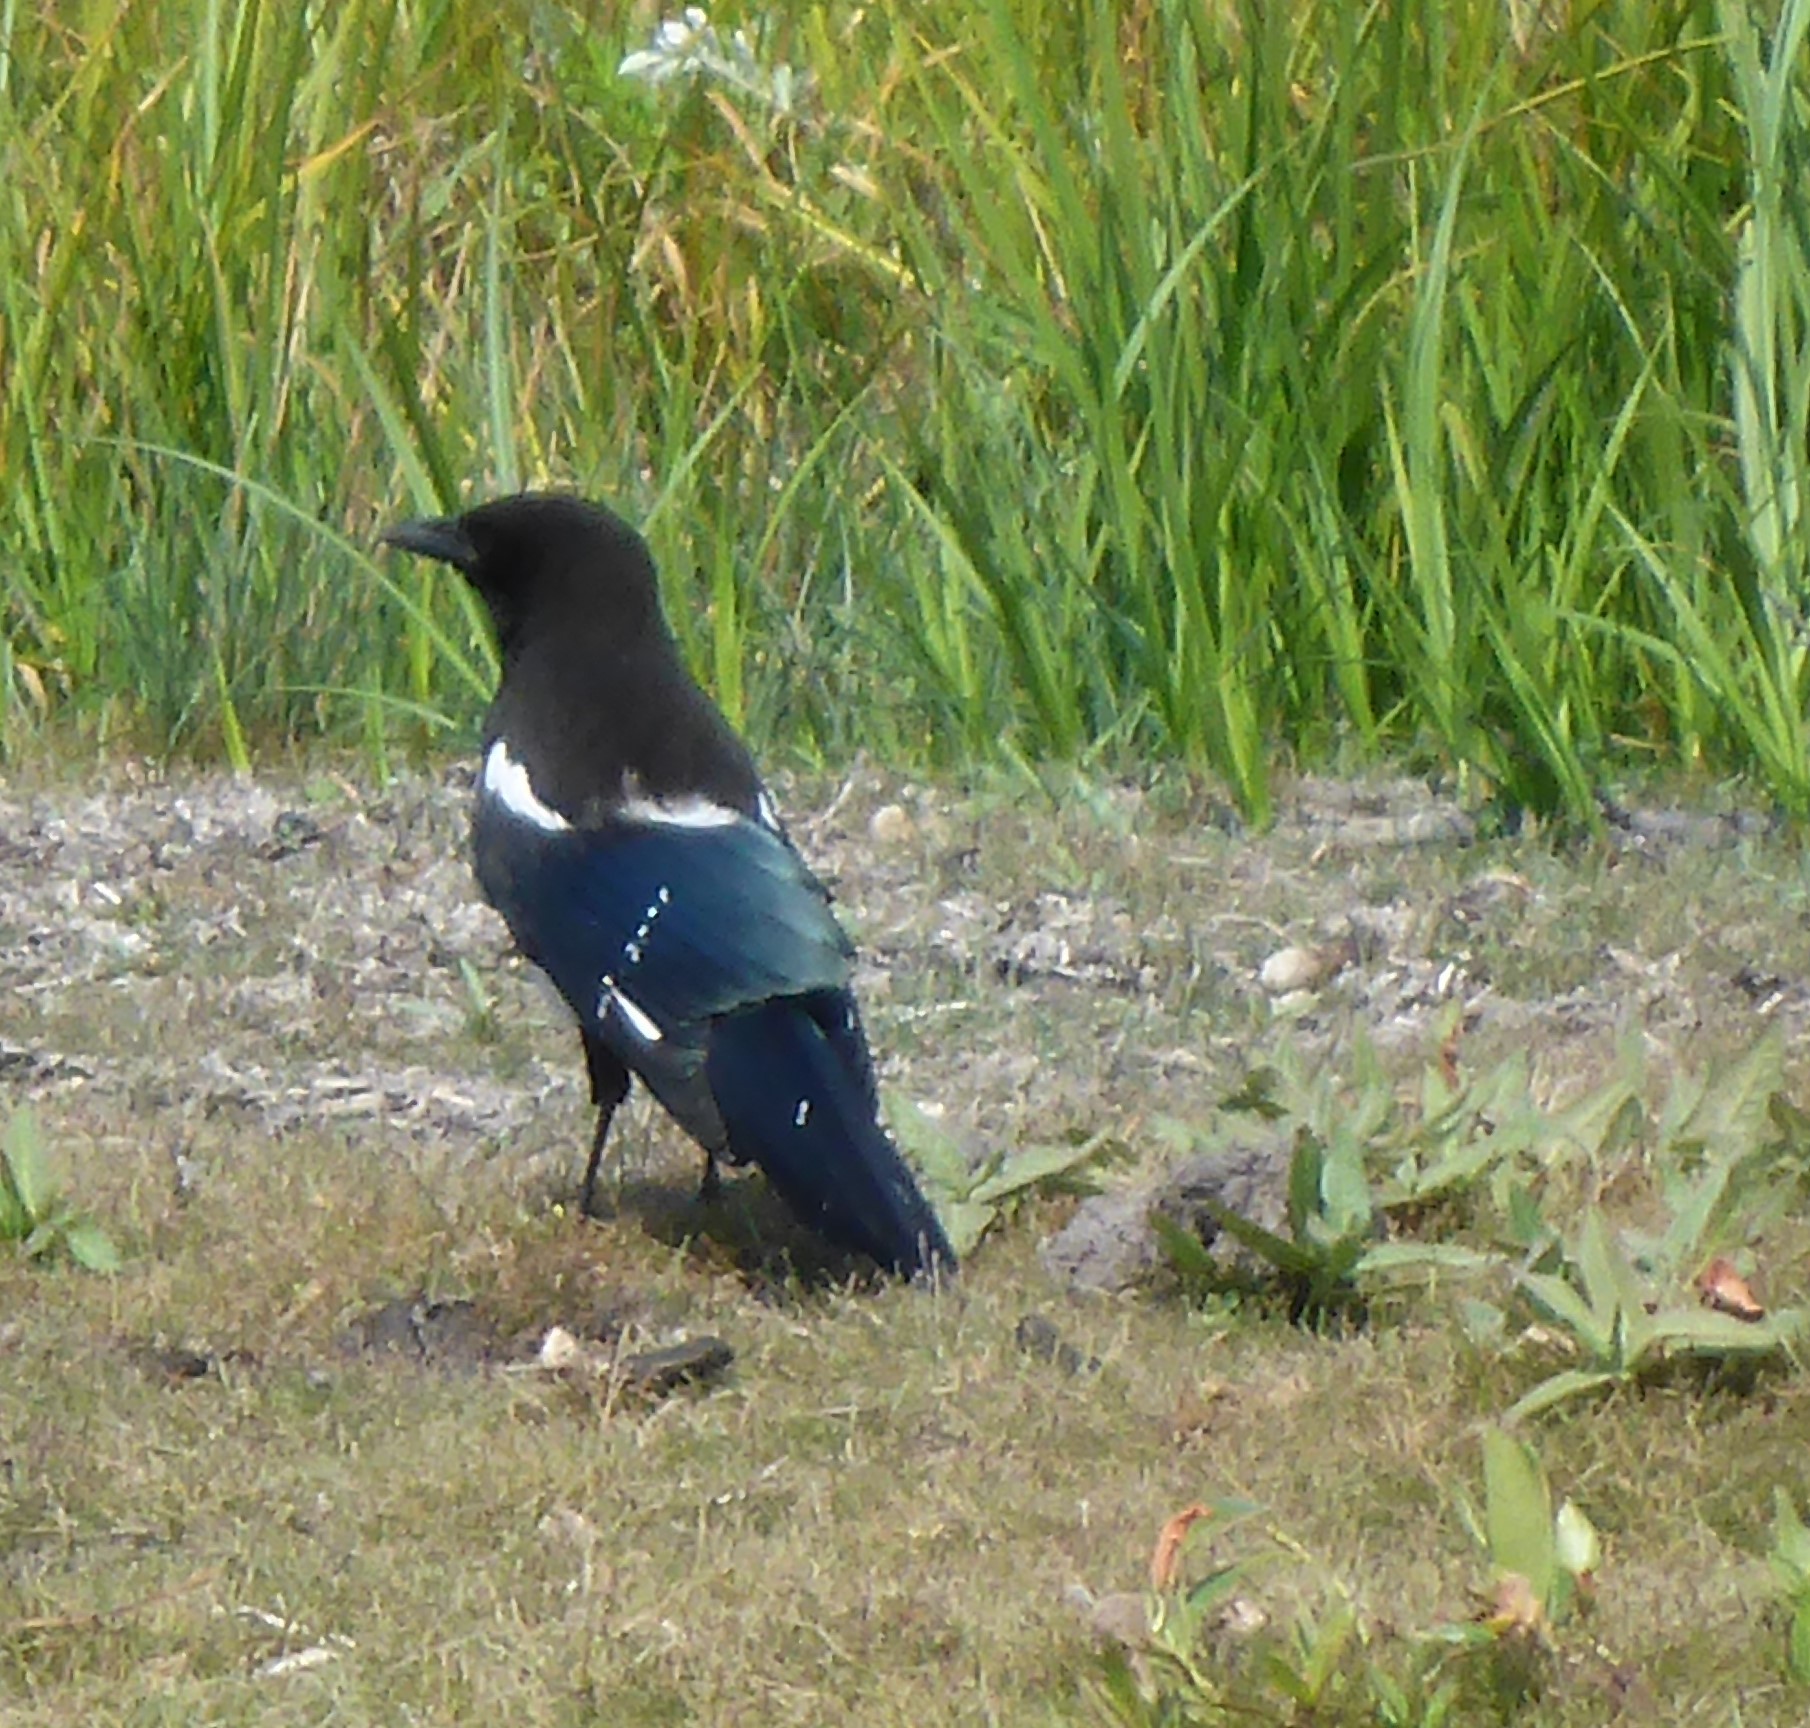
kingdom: Animalia
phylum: Chordata
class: Aves
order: Passeriformes
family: Corvidae
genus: Pica
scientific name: Pica hudsonia
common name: Black-billed magpie
